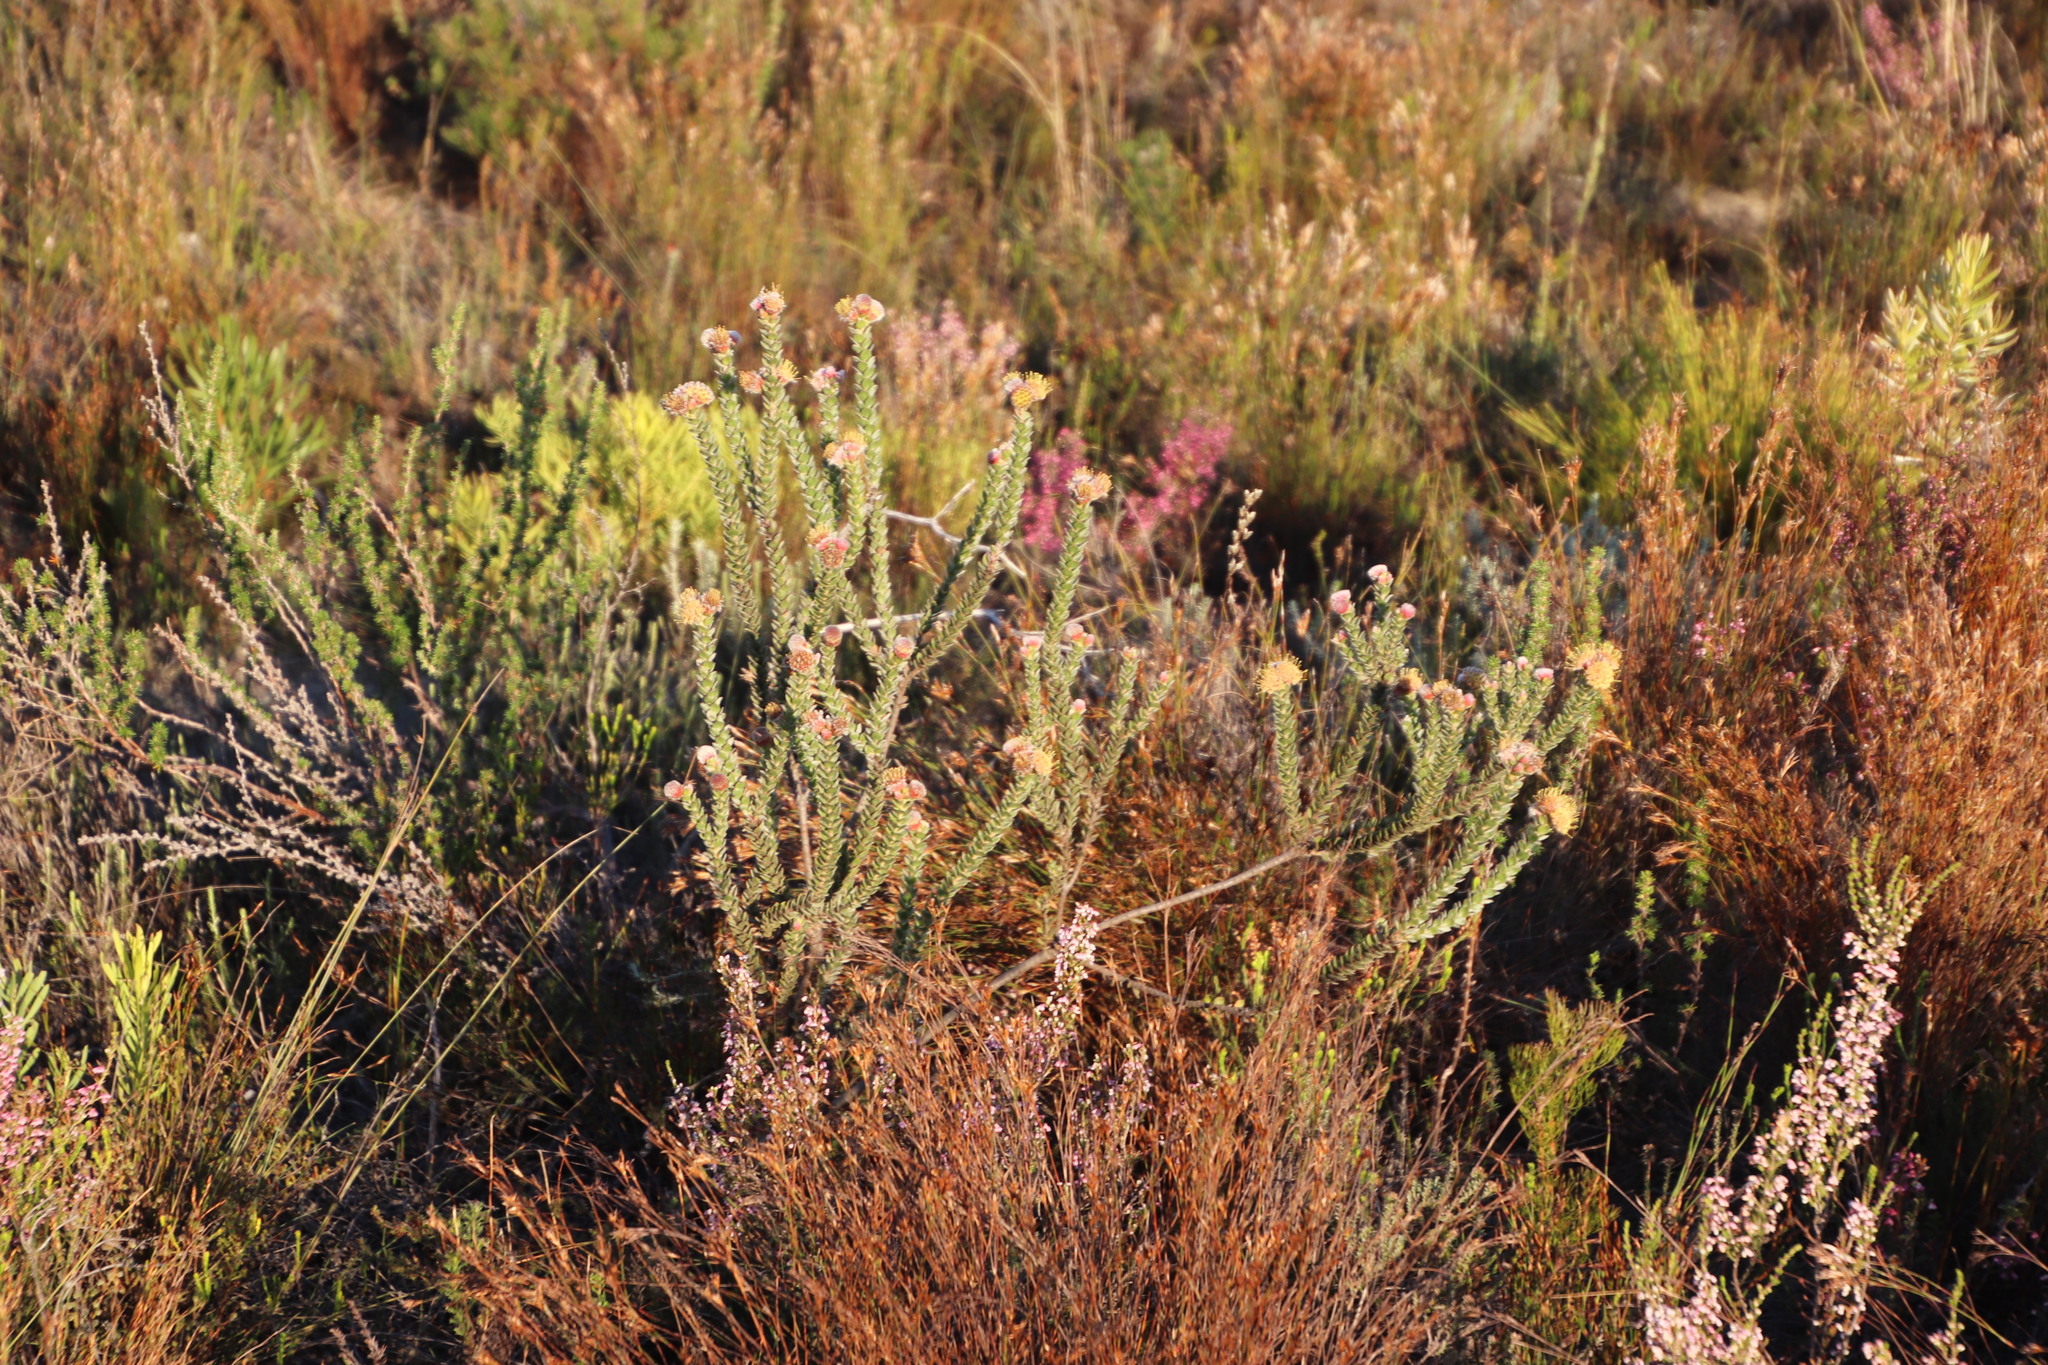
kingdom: Plantae
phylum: Tracheophyta
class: Magnoliopsida
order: Proteales
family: Proteaceae
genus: Leucospermum
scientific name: Leucospermum truncatulum
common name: Oval-leaf pincushion
